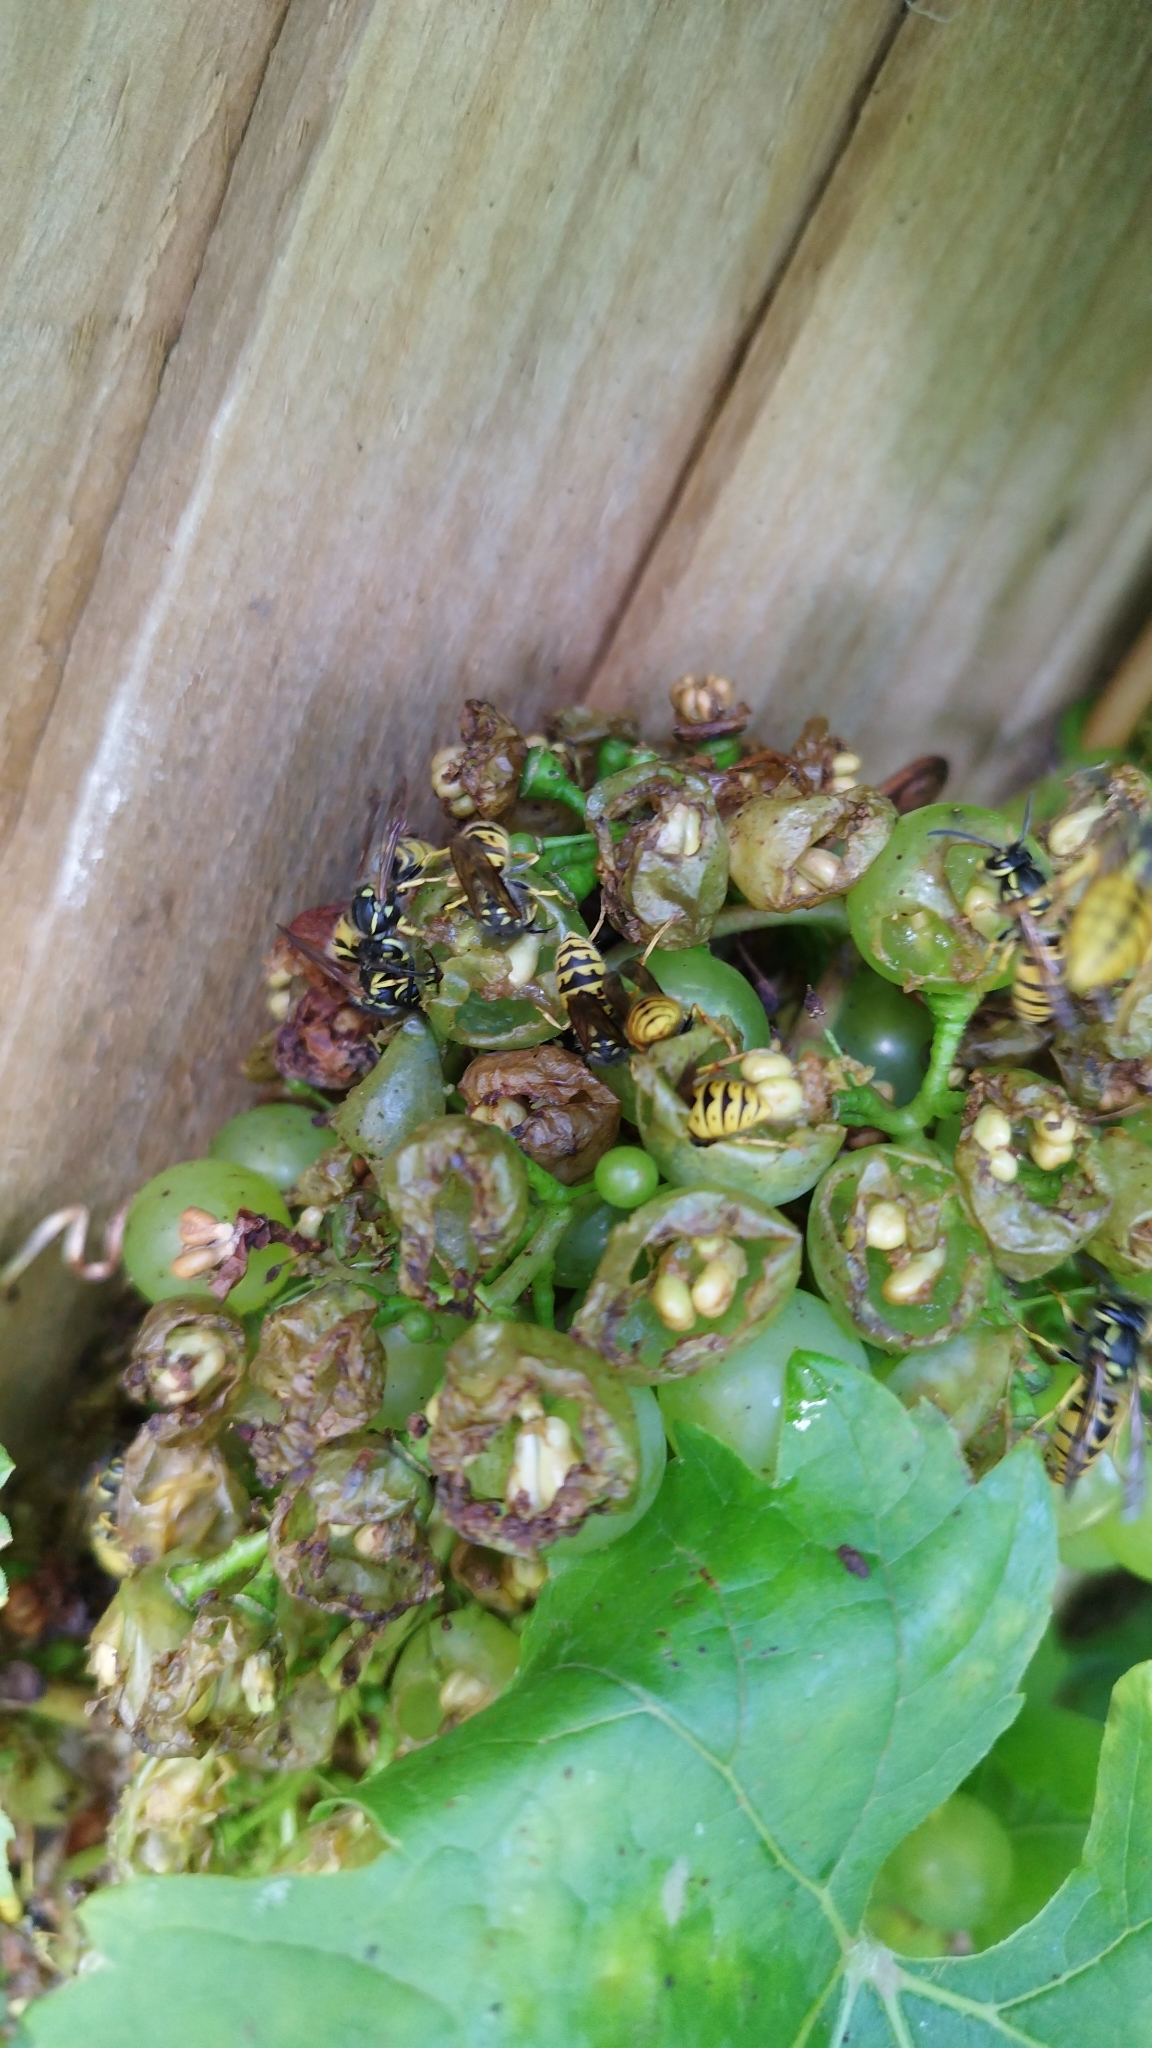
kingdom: Animalia
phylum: Arthropoda
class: Insecta
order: Hymenoptera
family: Vespidae
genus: Vespula
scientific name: Vespula germanica
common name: German wasp
